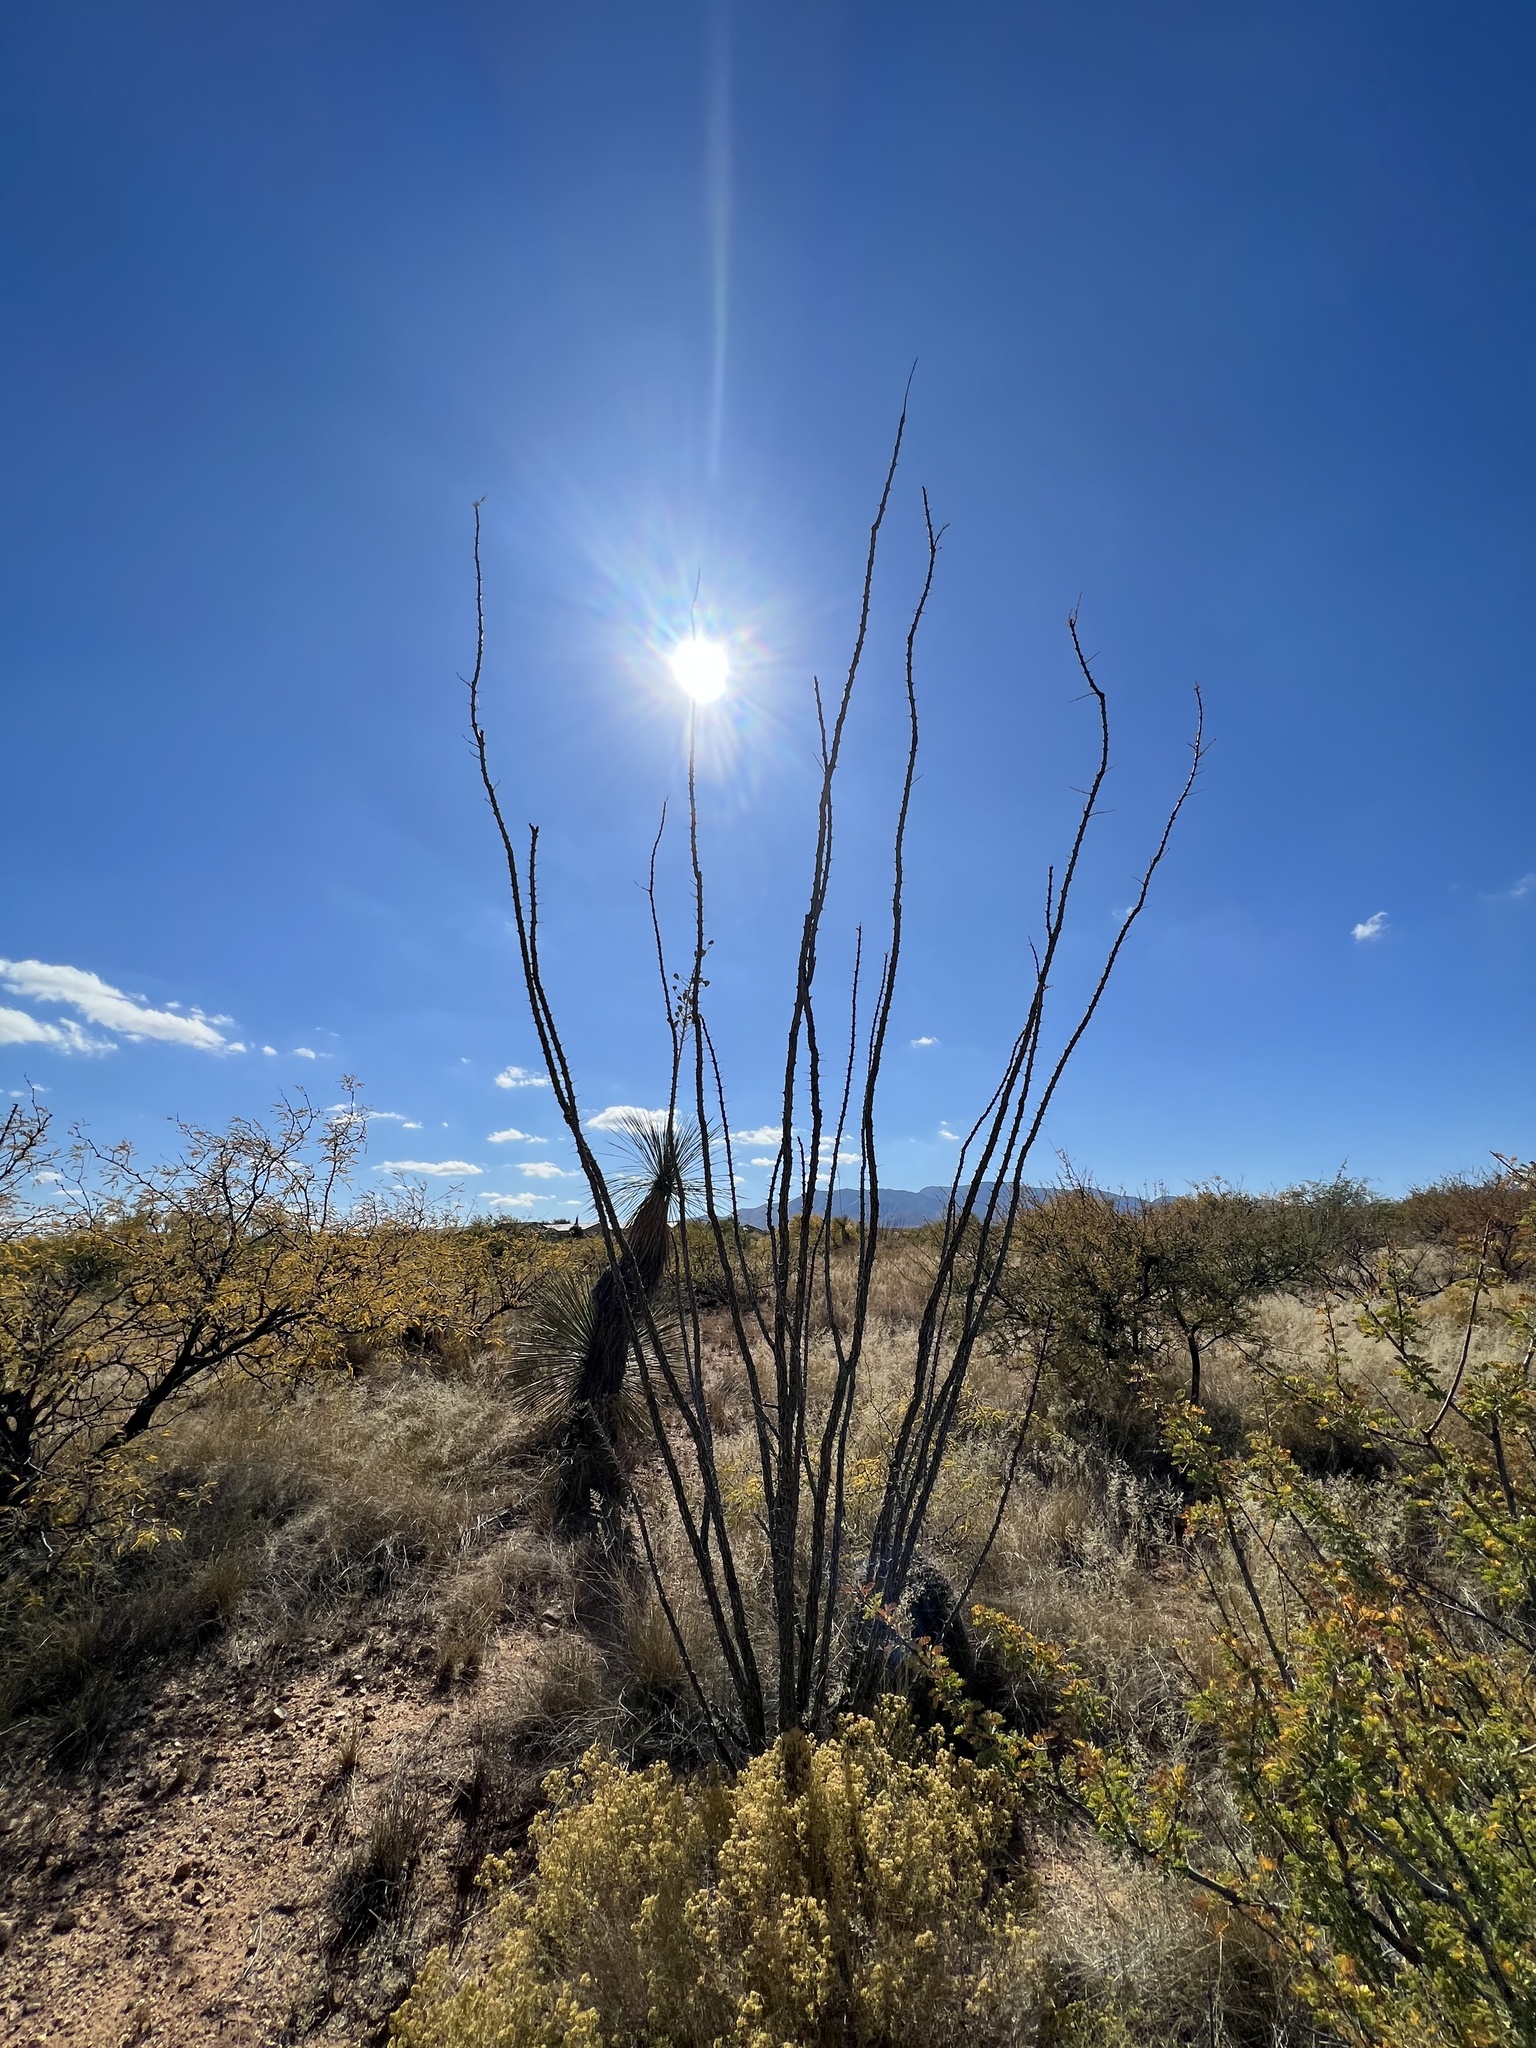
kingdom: Plantae
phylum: Tracheophyta
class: Magnoliopsida
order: Ericales
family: Fouquieriaceae
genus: Fouquieria
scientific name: Fouquieria splendens
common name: Vine-cactus
